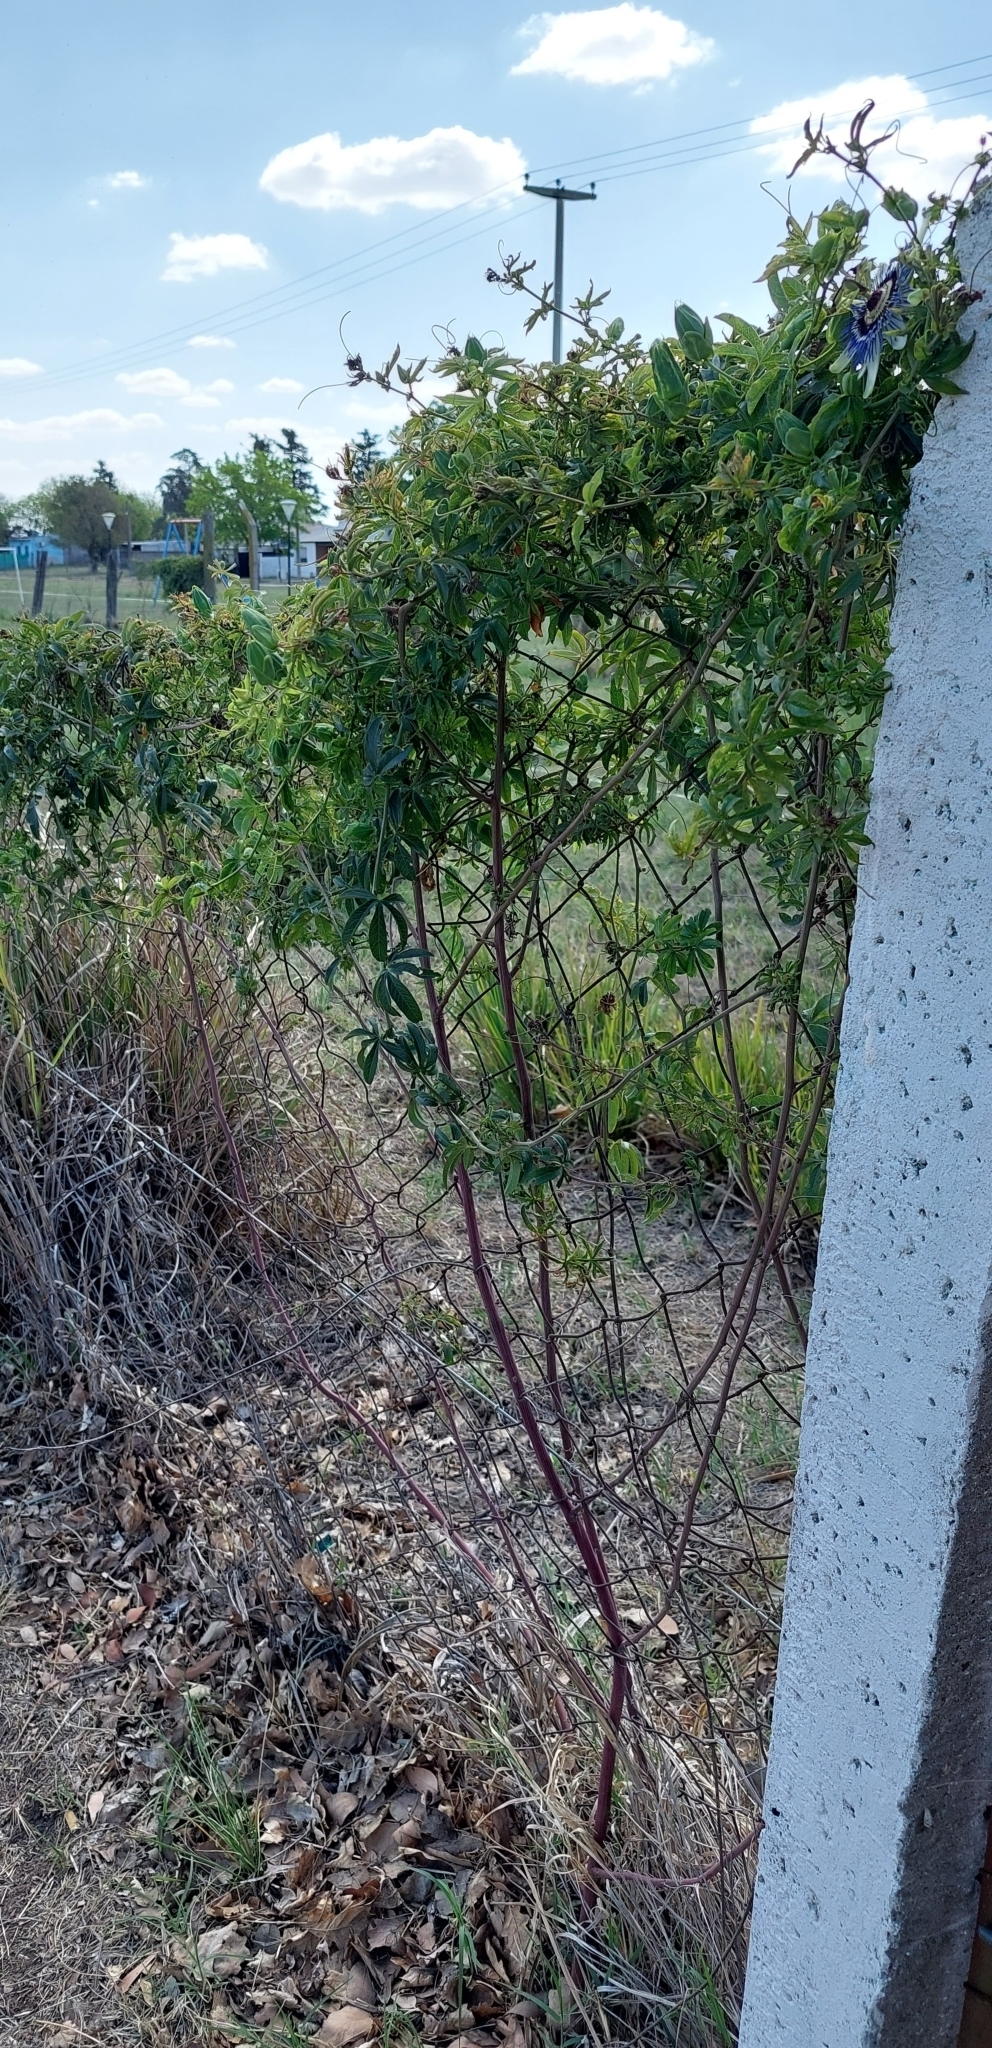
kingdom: Plantae
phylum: Tracheophyta
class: Magnoliopsida
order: Malpighiales
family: Passifloraceae
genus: Passiflora
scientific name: Passiflora caerulea
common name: Blue passionflower
